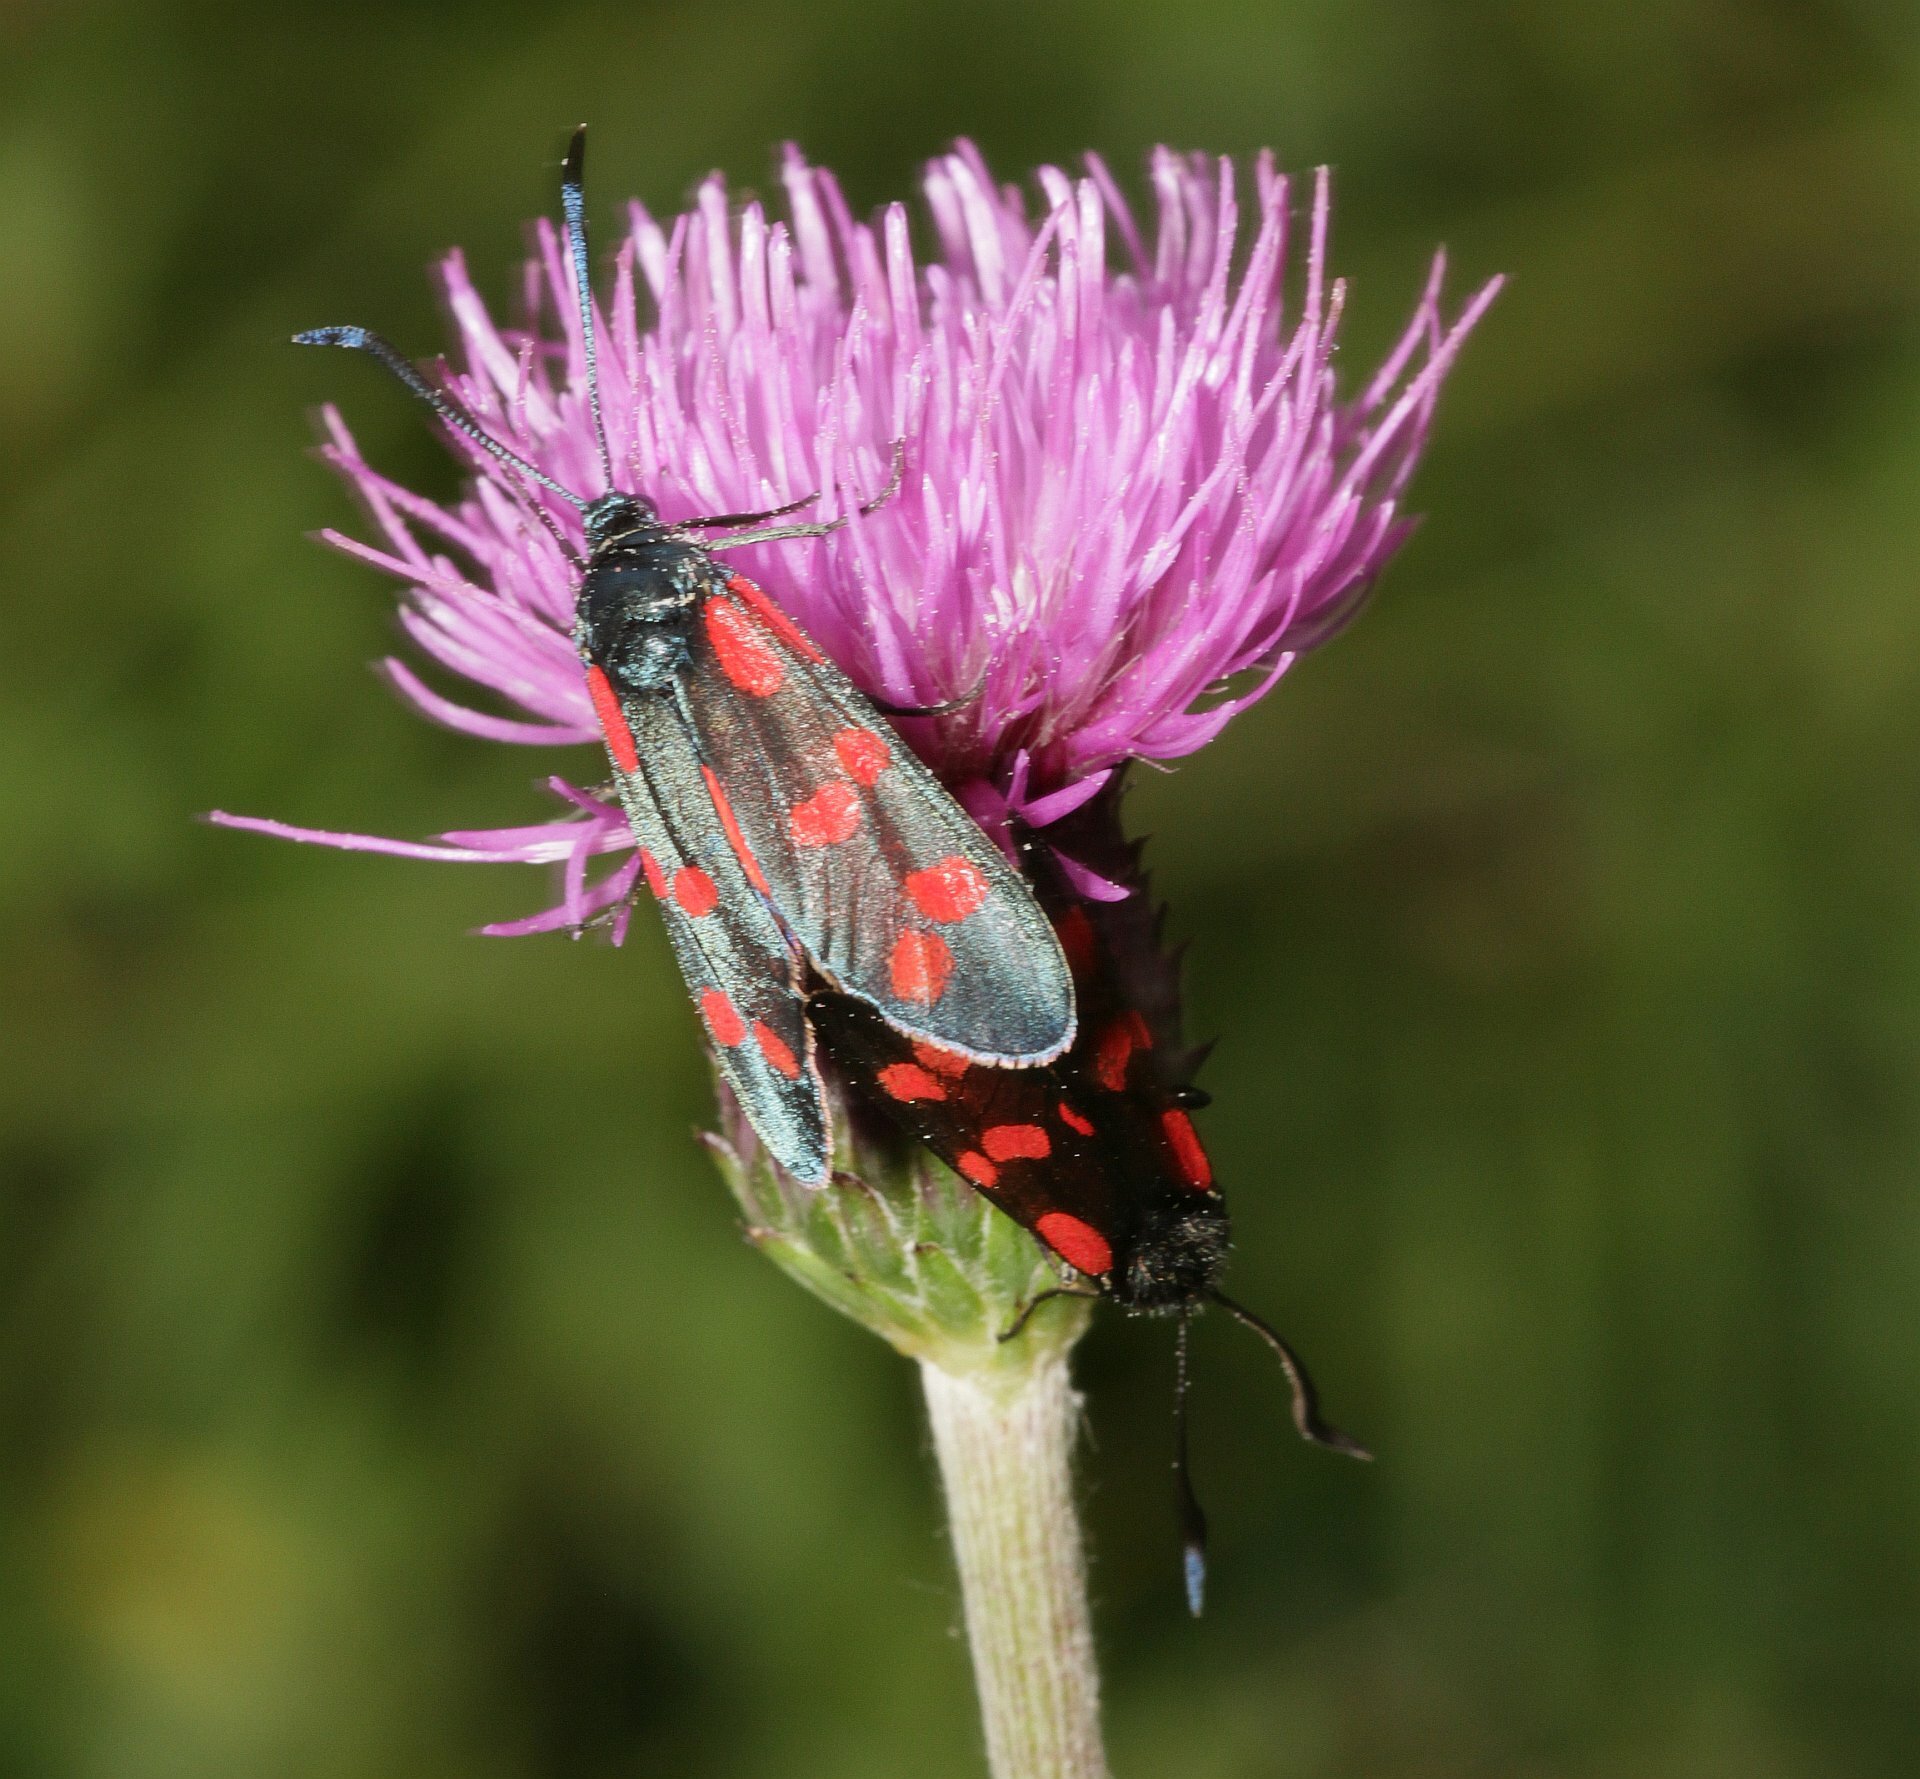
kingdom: Animalia
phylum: Arthropoda
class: Insecta
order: Lepidoptera
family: Zygaenidae
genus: Zygaena
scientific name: Zygaena filipendulae
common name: Six-spot burnet
